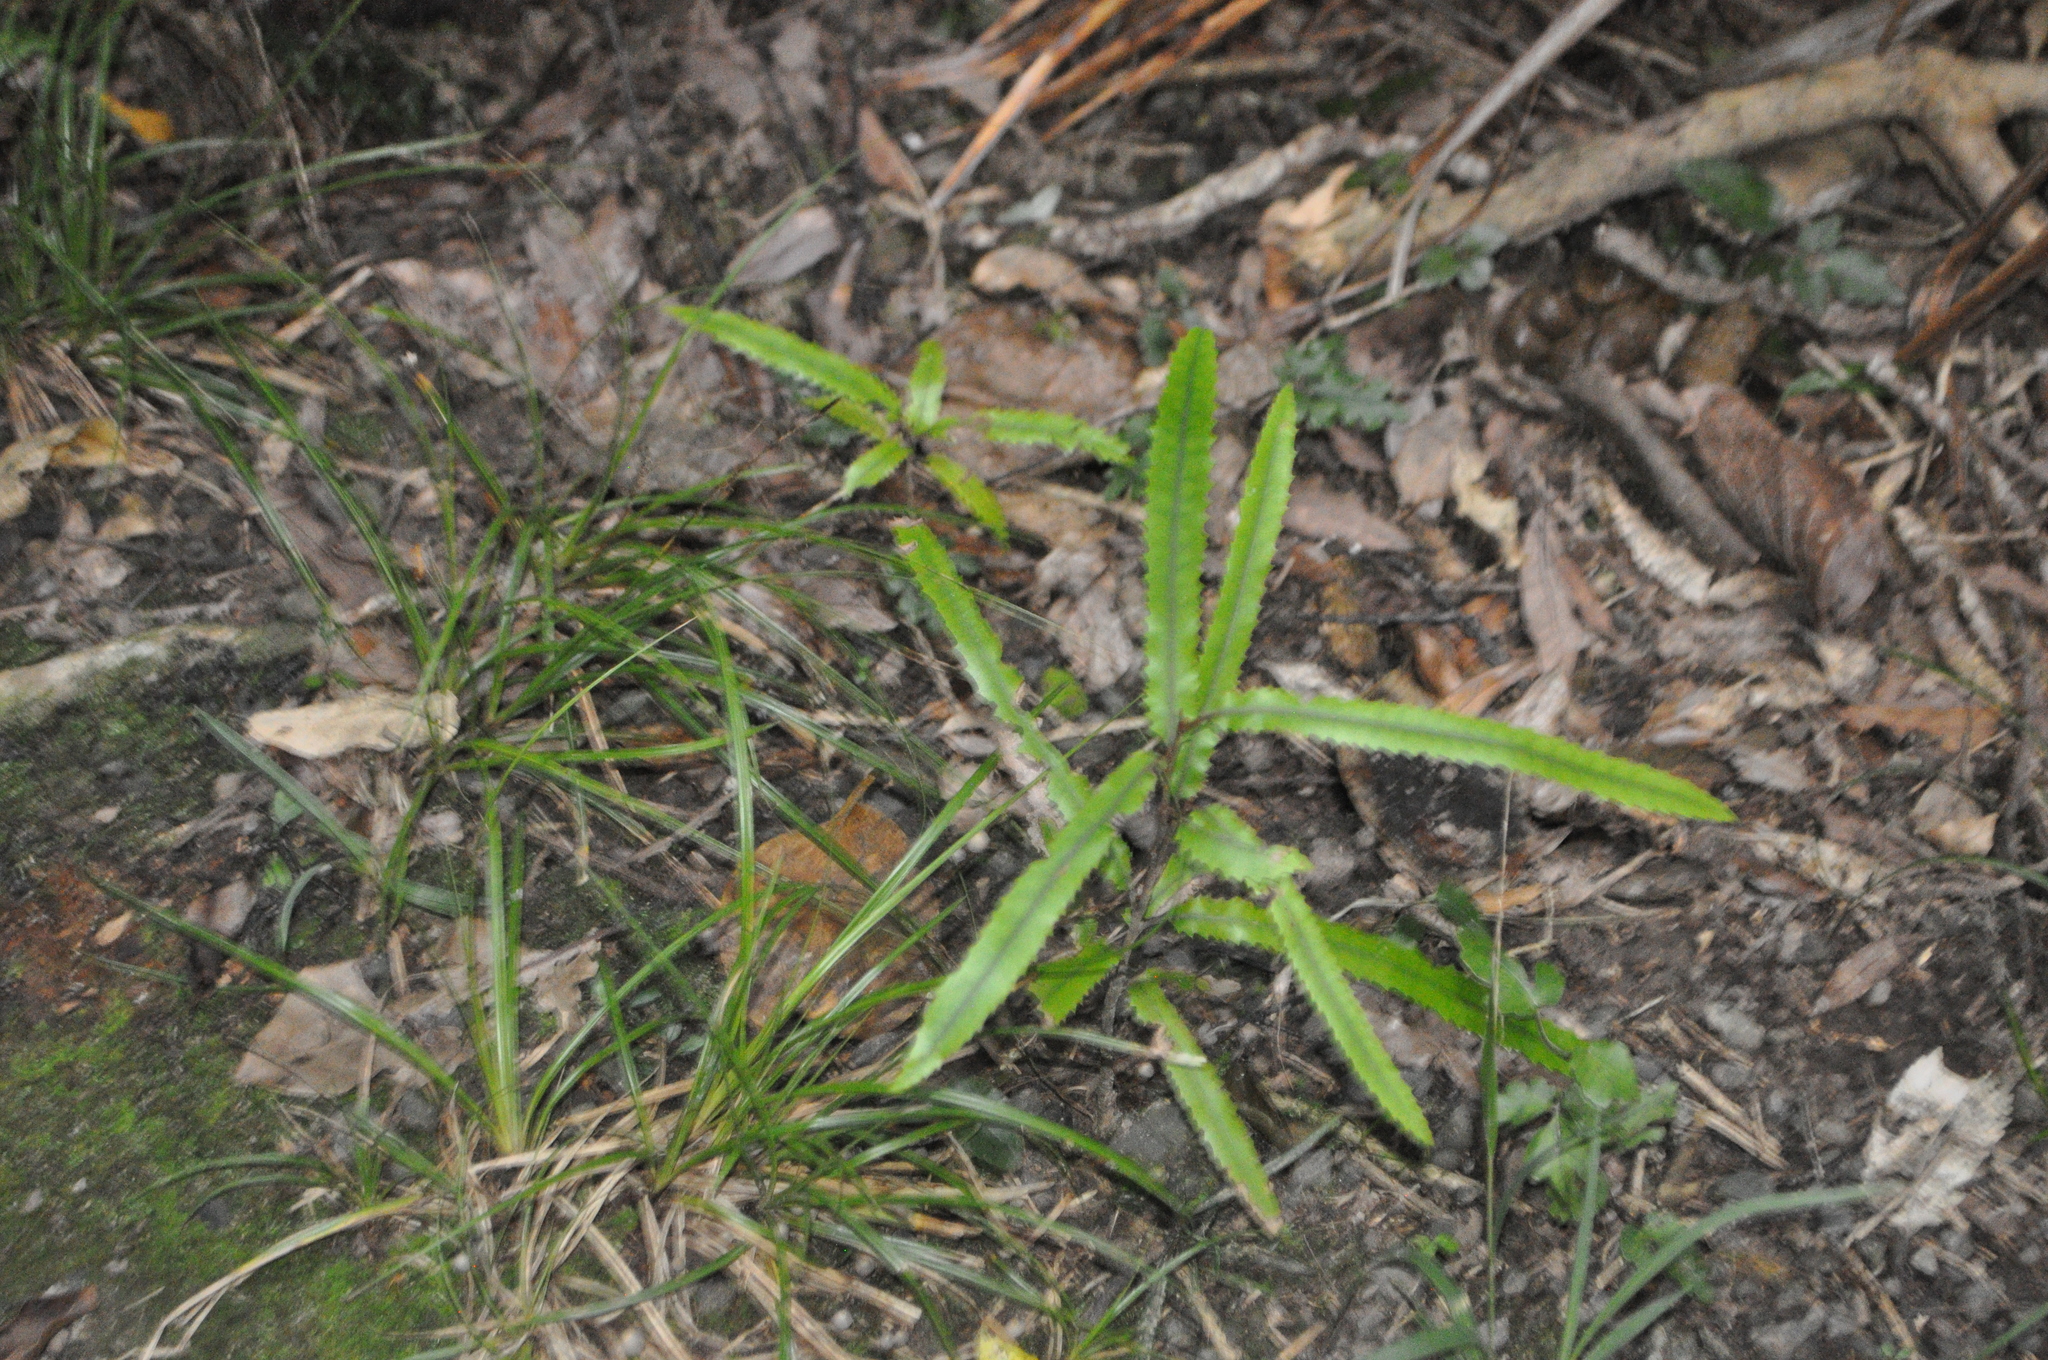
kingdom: Plantae
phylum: Tracheophyta
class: Magnoliopsida
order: Proteales
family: Proteaceae
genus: Knightia
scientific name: Knightia excelsa
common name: New zealand-honeysuckle
